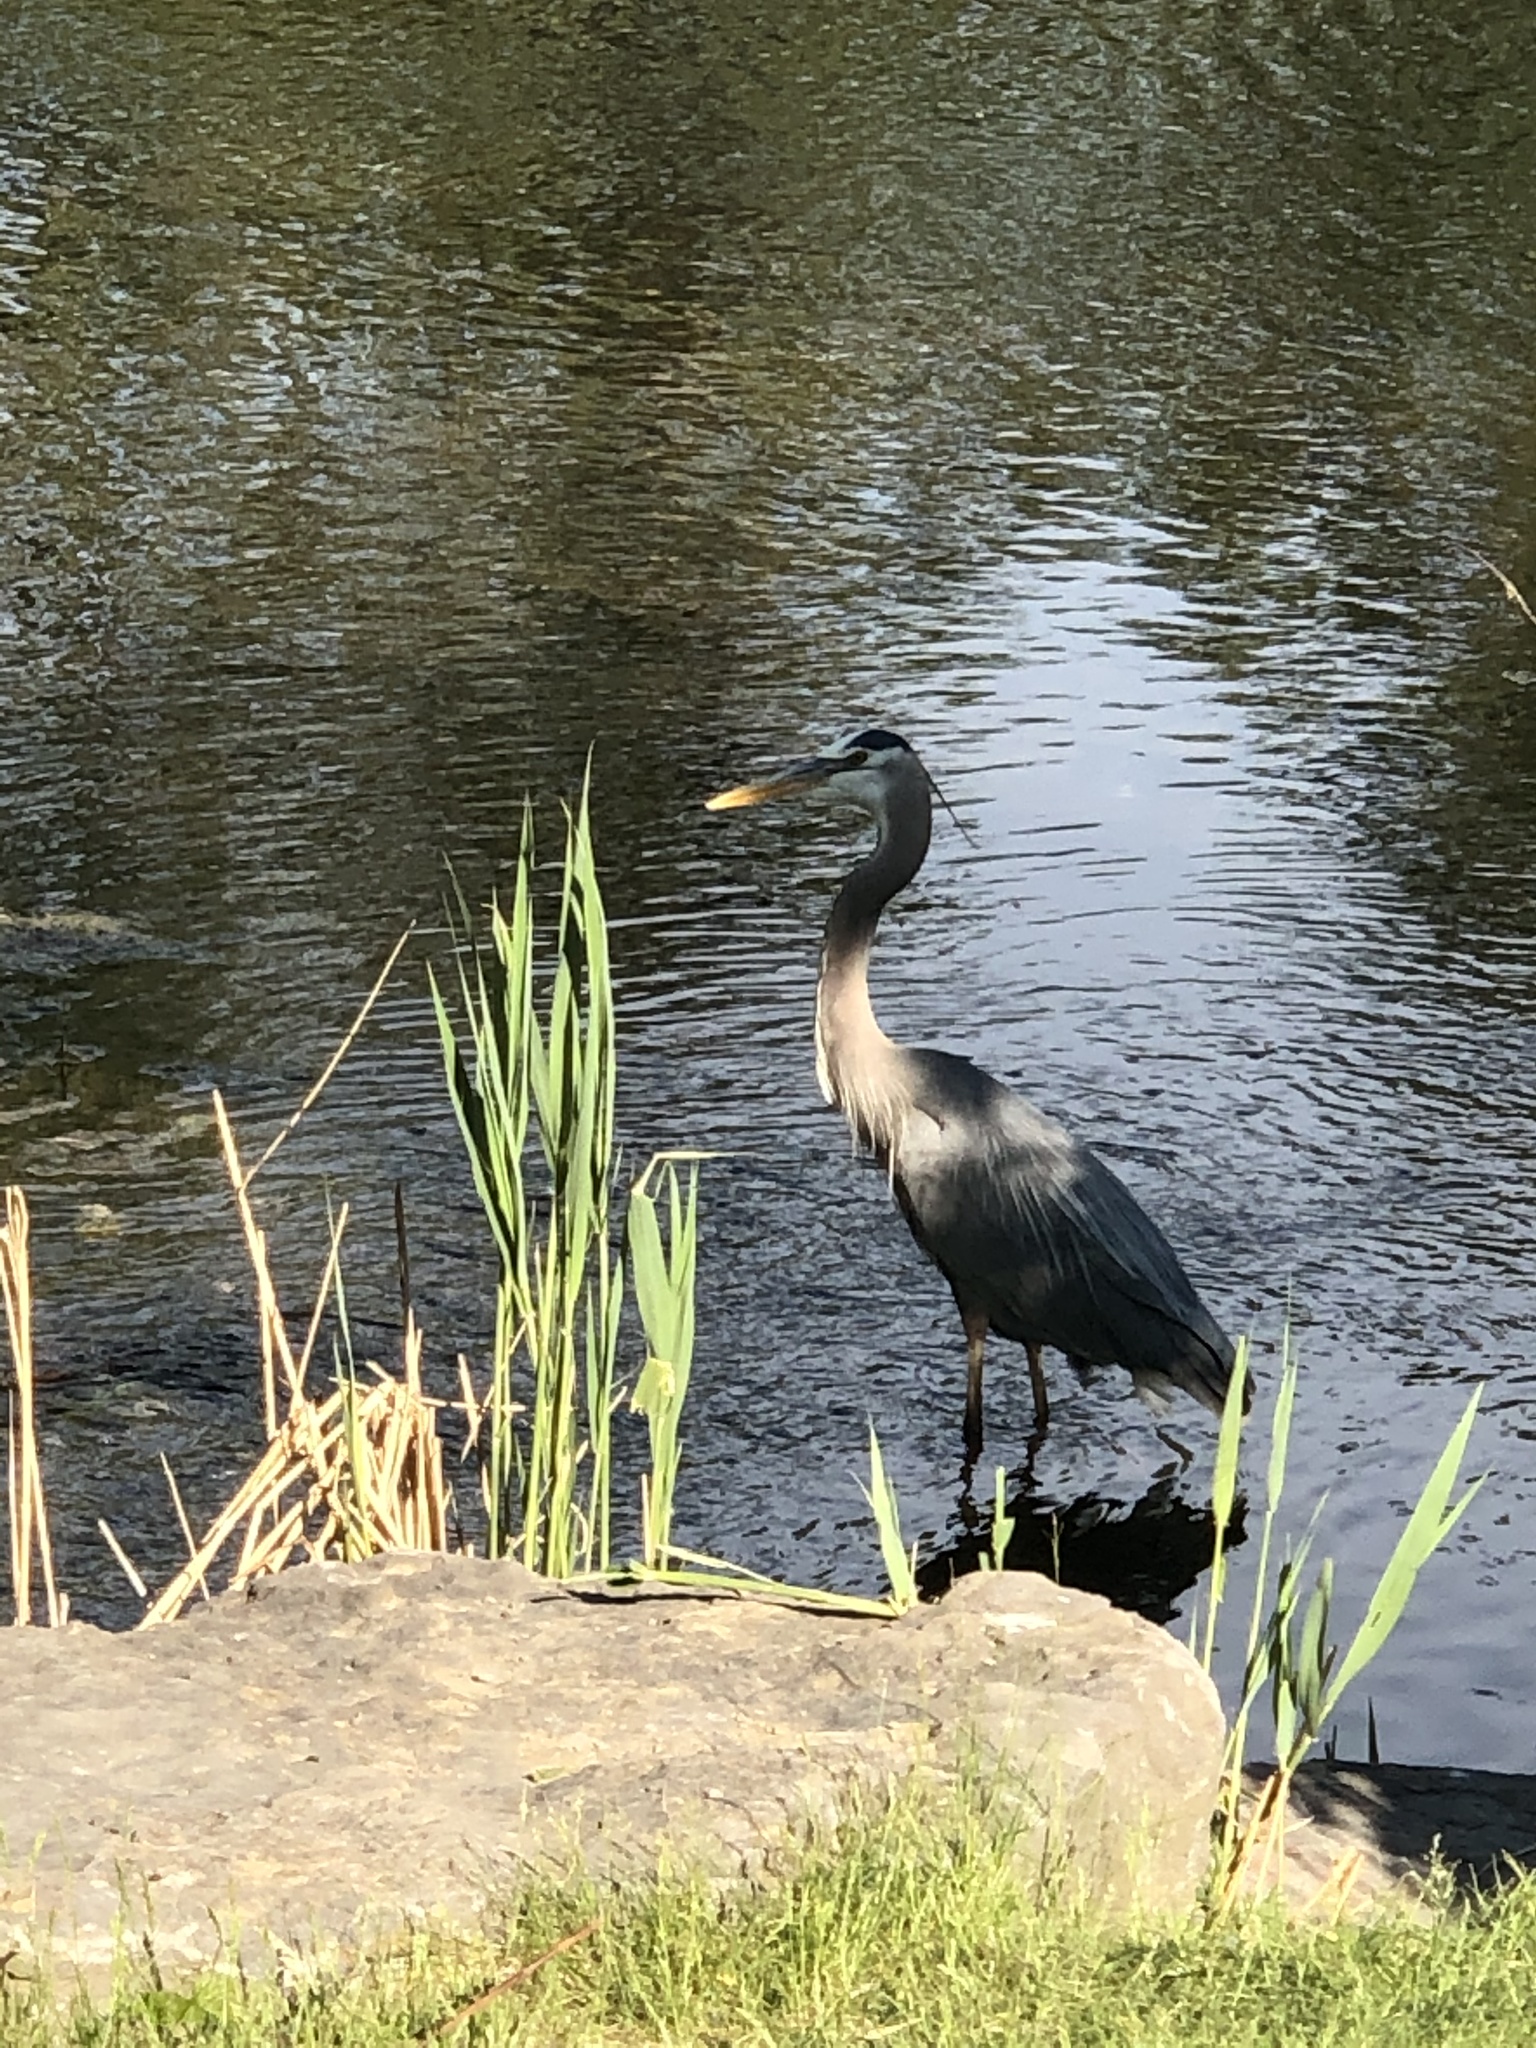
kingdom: Animalia
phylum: Chordata
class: Aves
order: Pelecaniformes
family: Ardeidae
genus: Ardea
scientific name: Ardea herodias
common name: Great blue heron
